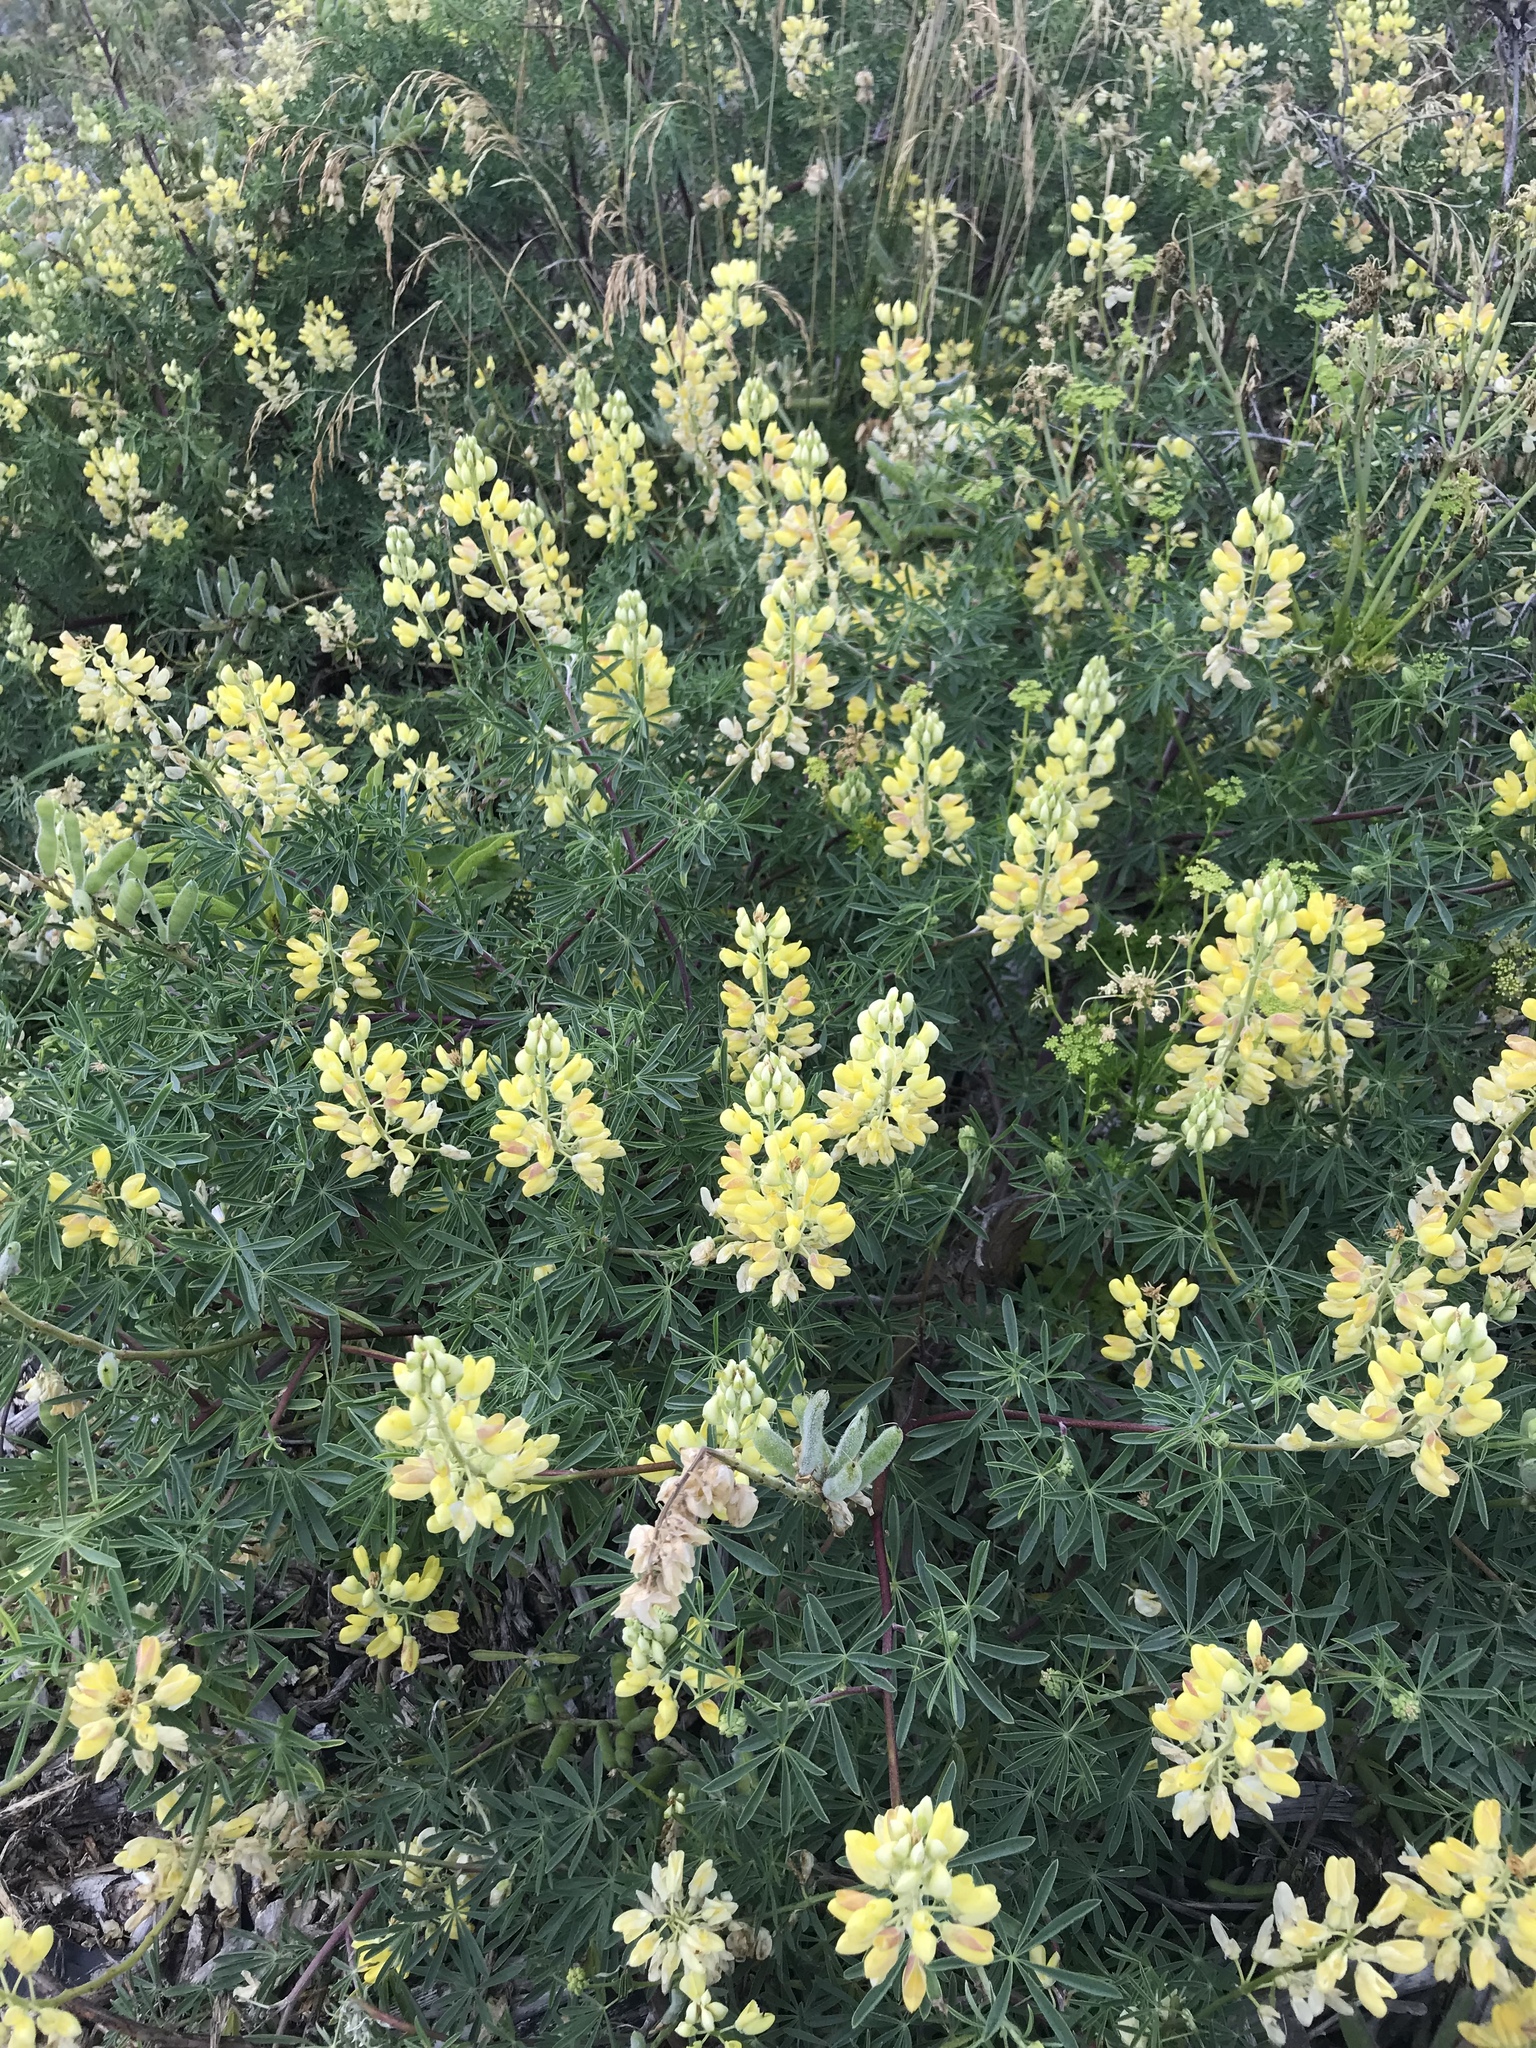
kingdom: Plantae
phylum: Tracheophyta
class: Magnoliopsida
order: Fabales
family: Fabaceae
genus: Lupinus
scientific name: Lupinus arboreus
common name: Yellow bush lupine
